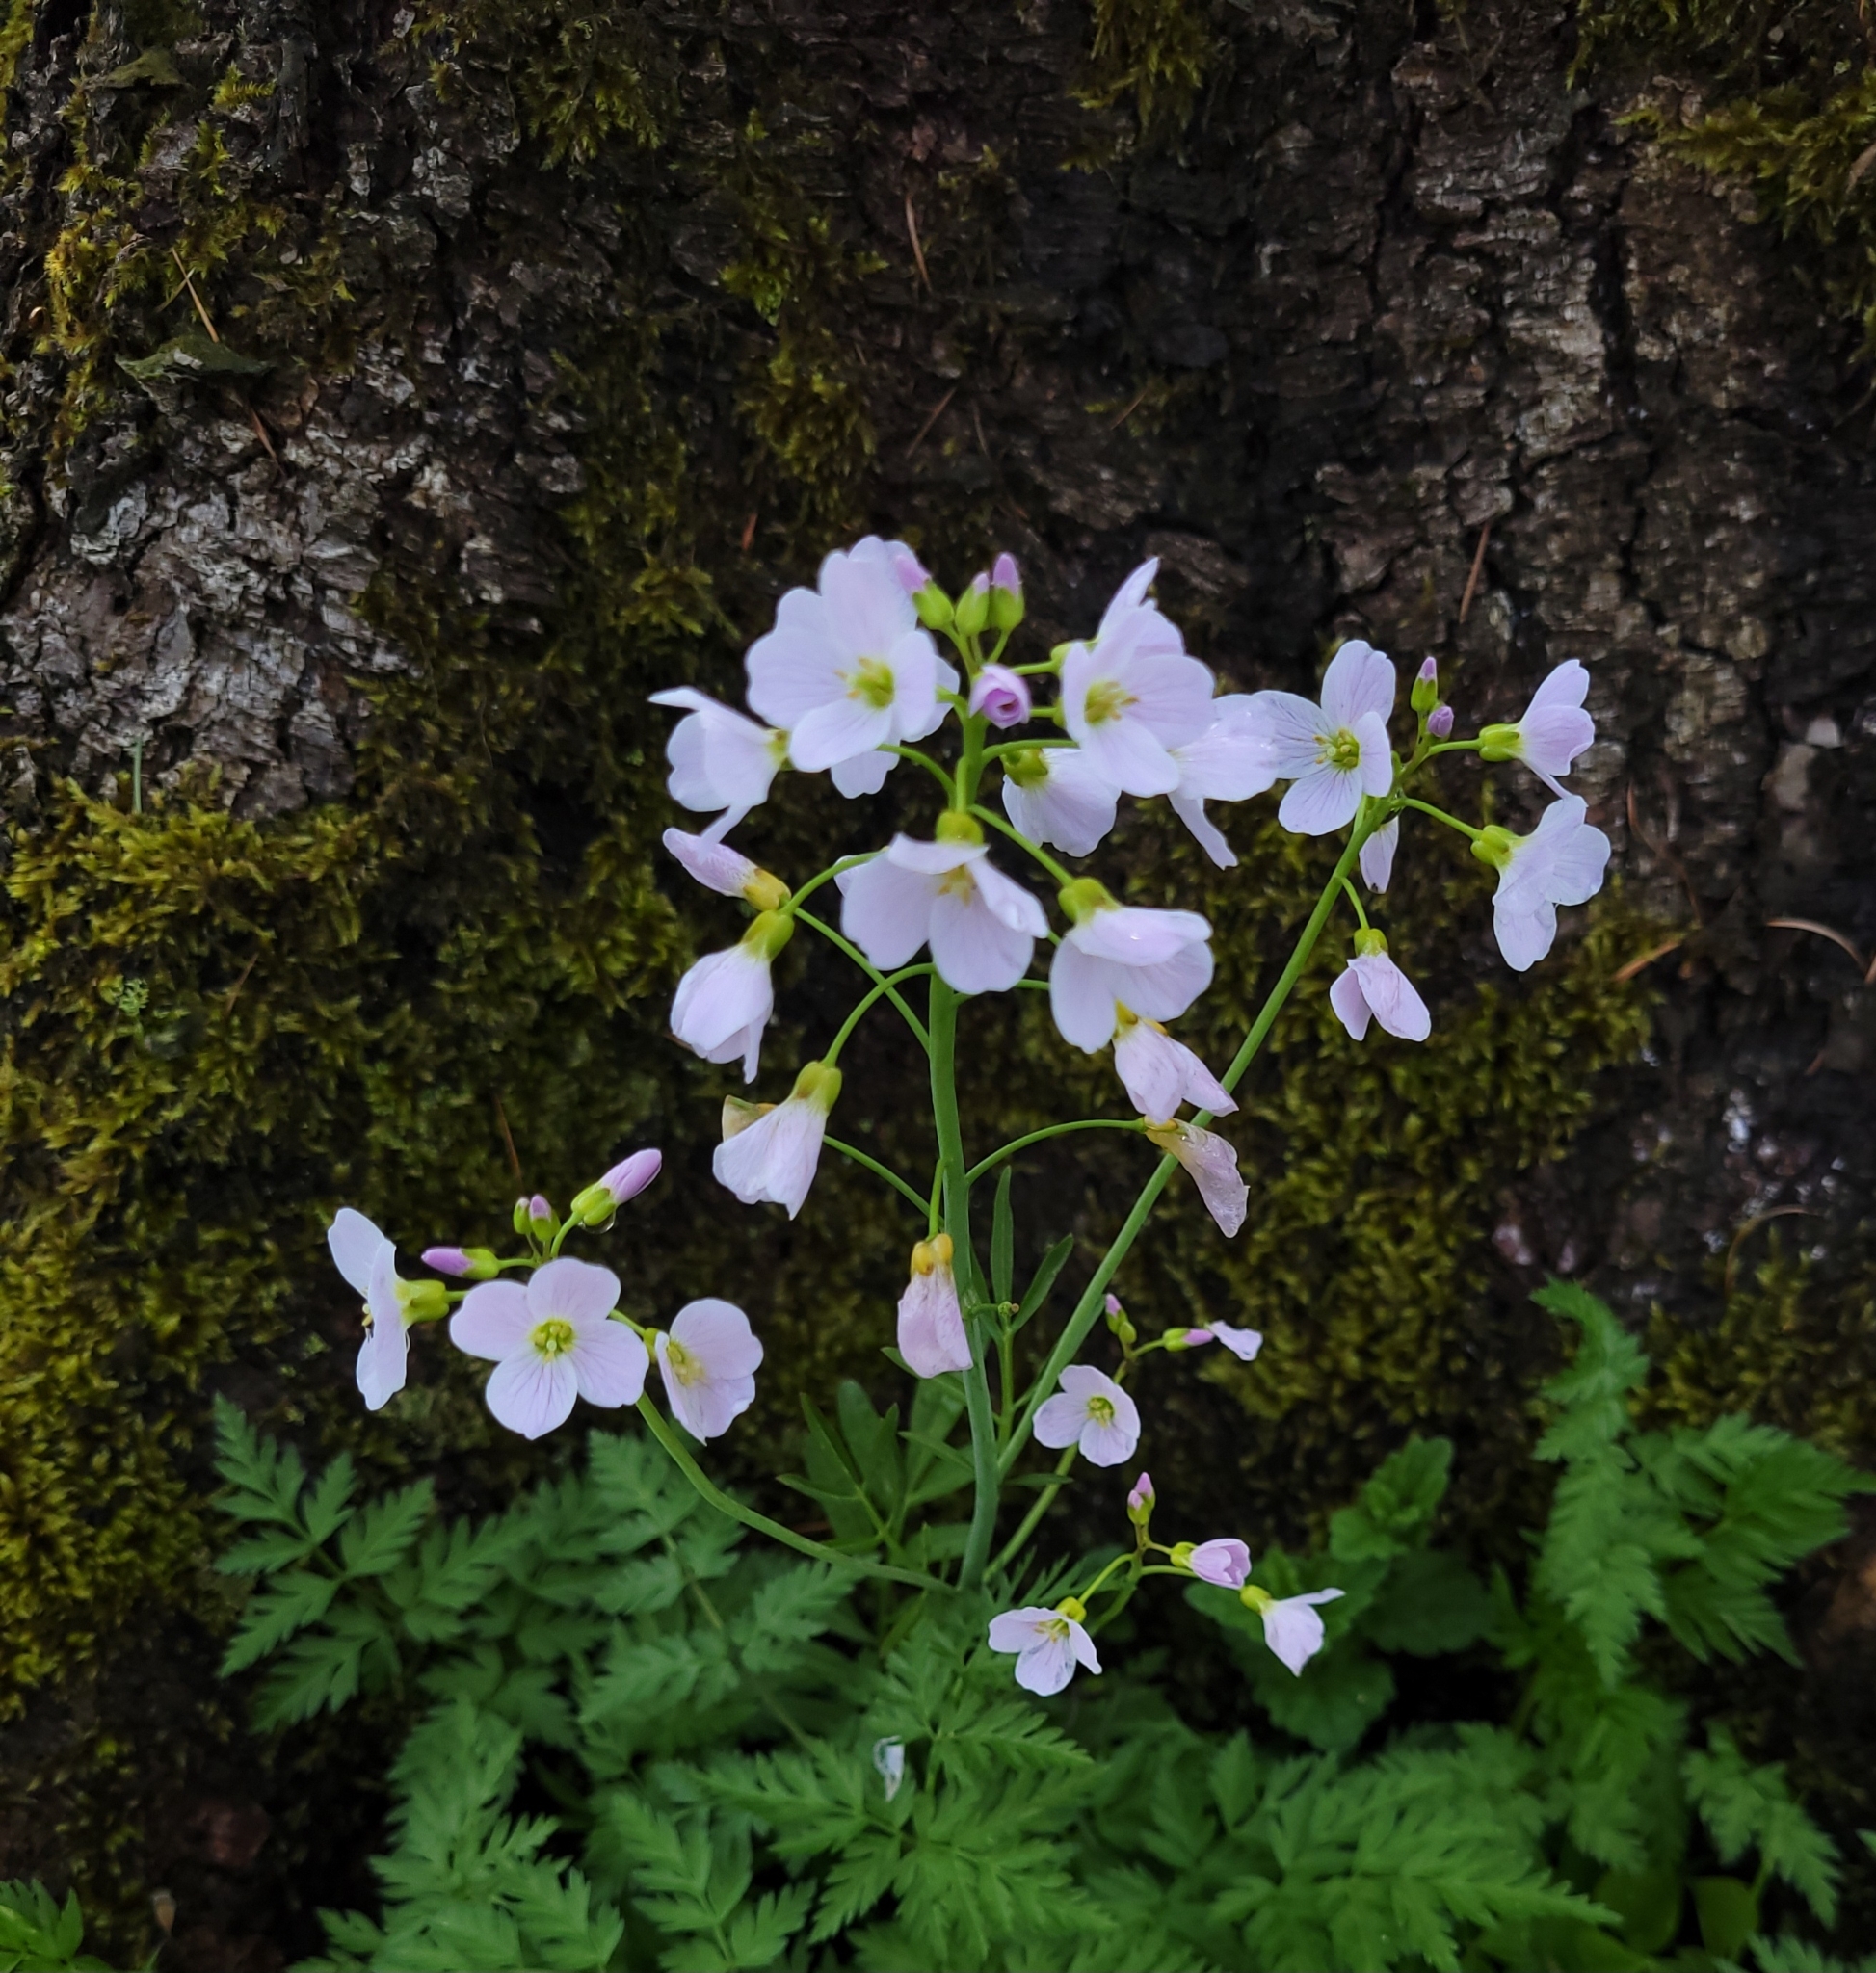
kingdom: Plantae
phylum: Tracheophyta
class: Magnoliopsida
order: Brassicales
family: Brassicaceae
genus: Cardamine
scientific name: Cardamine pratensis
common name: Cuckoo flower
